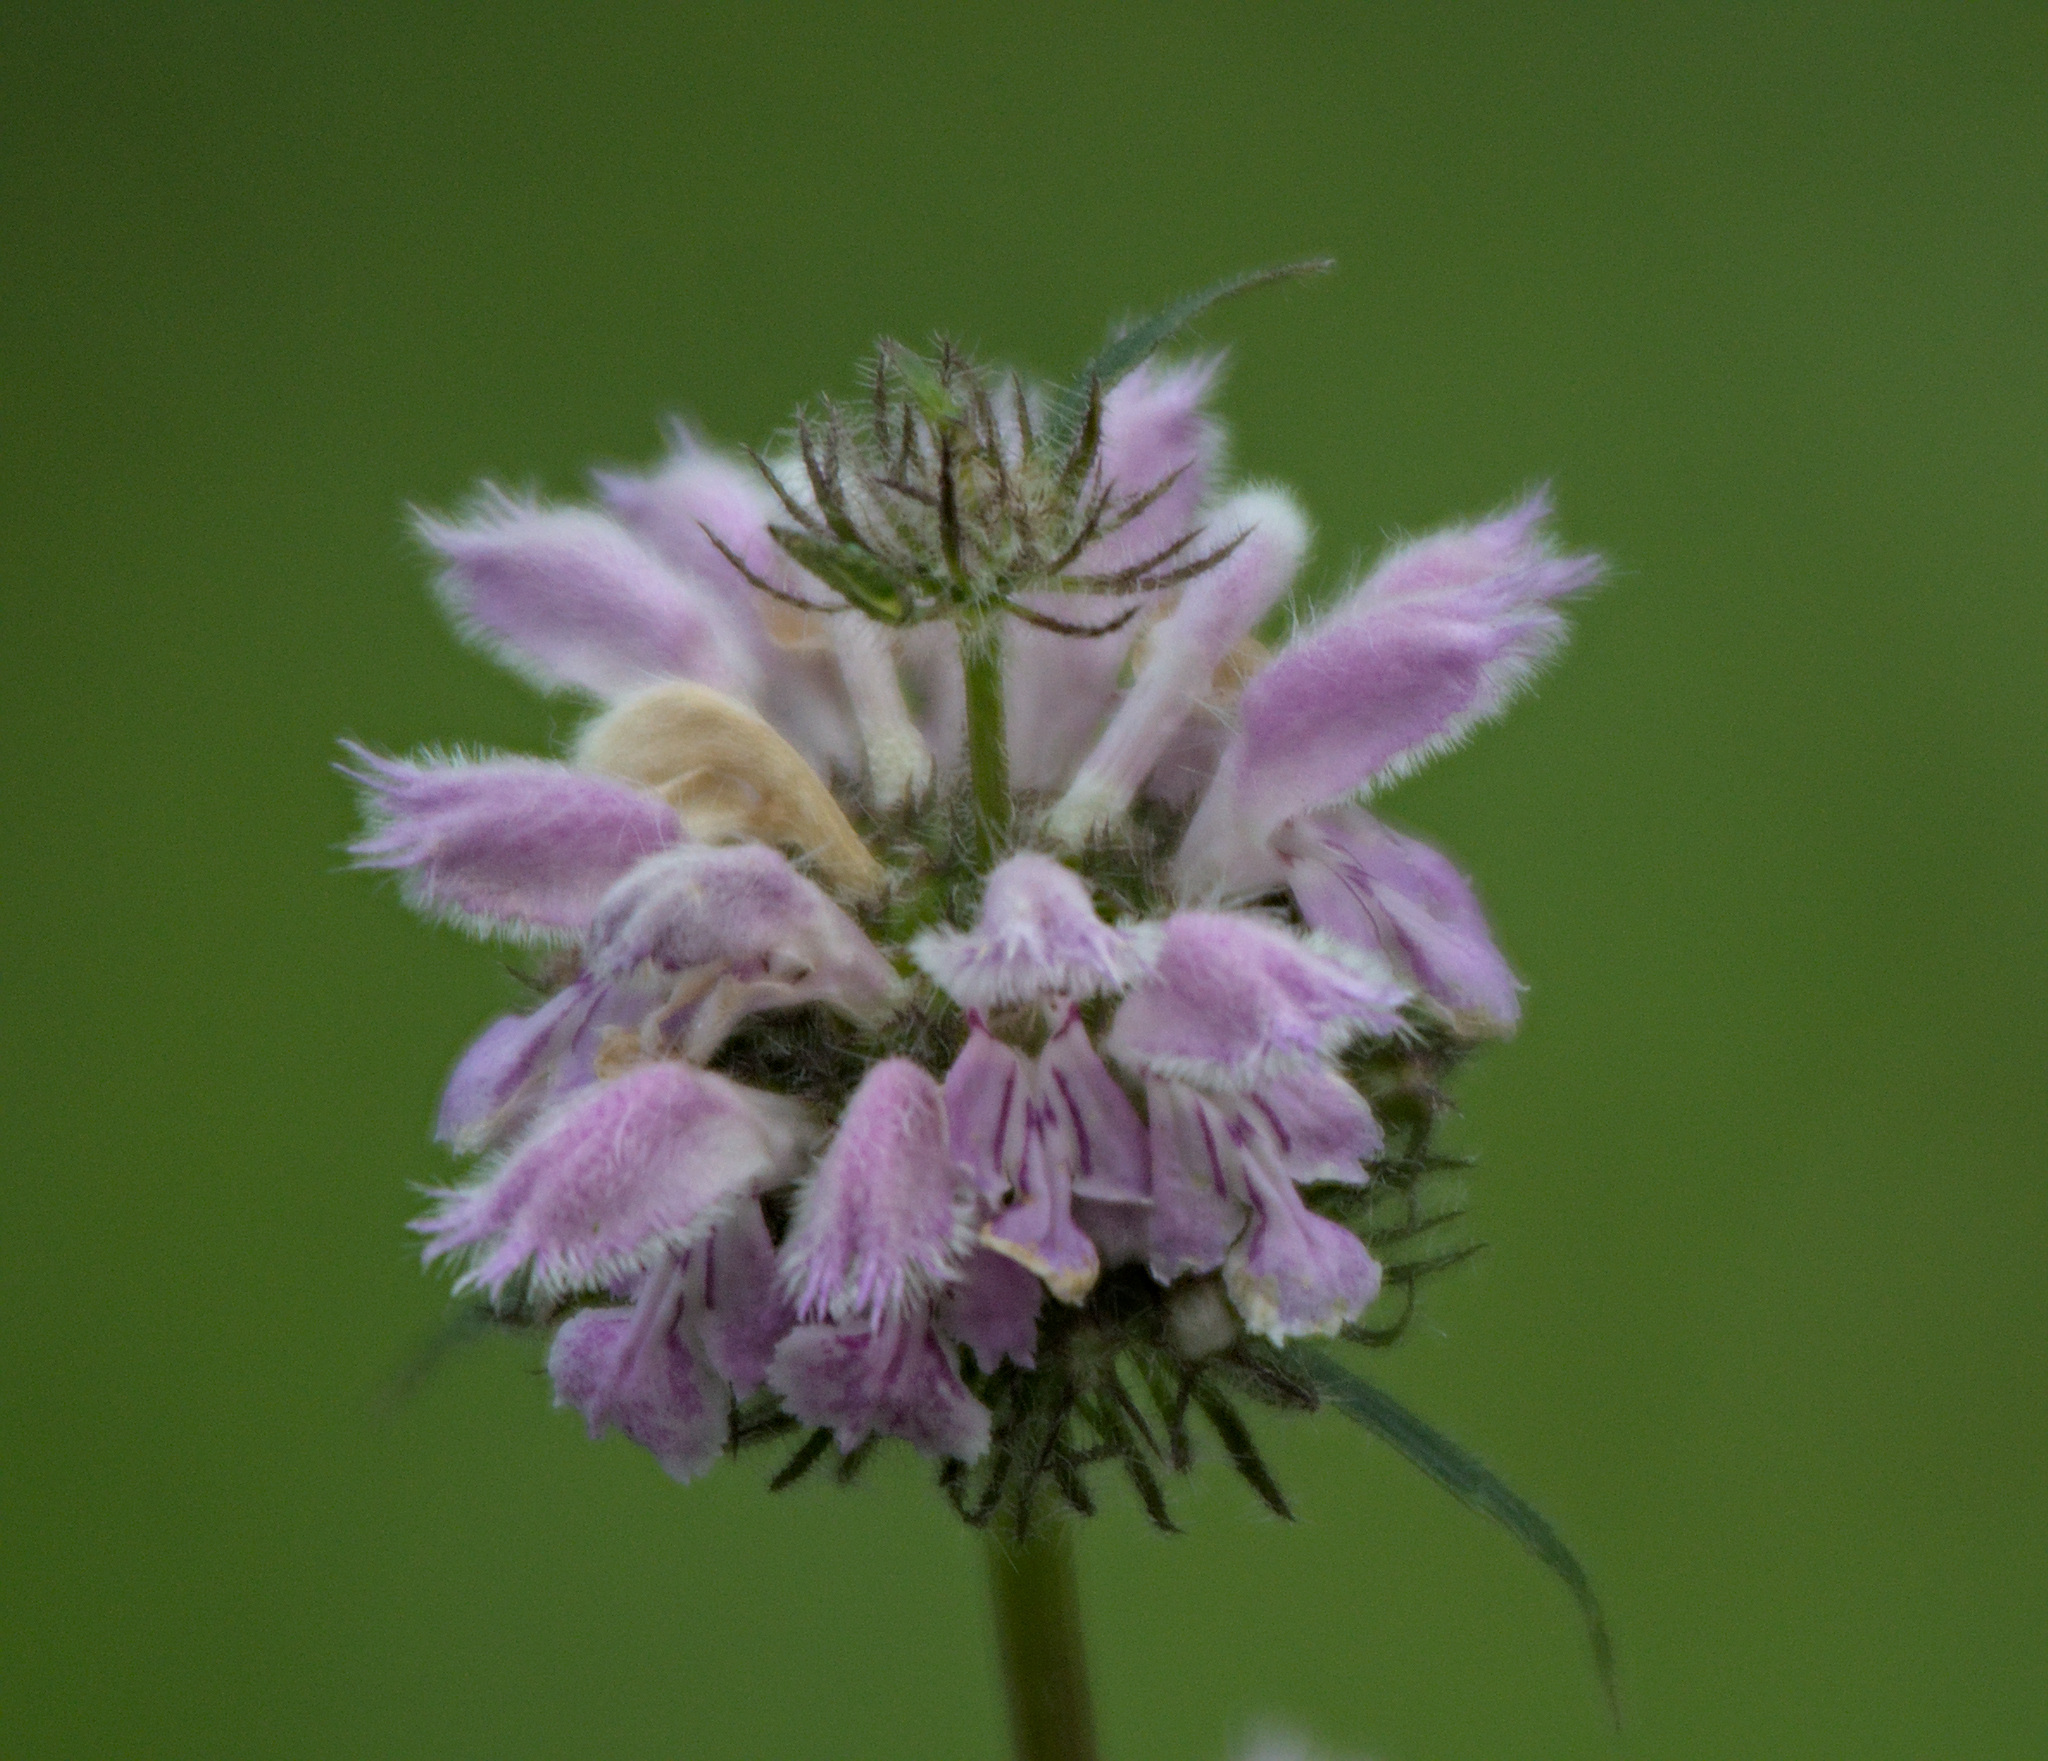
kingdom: Plantae
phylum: Tracheophyta
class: Magnoliopsida
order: Lamiales
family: Lamiaceae
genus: Phlomoides
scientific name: Phlomoides tuberosa
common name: Tuberous jerusalem sage
